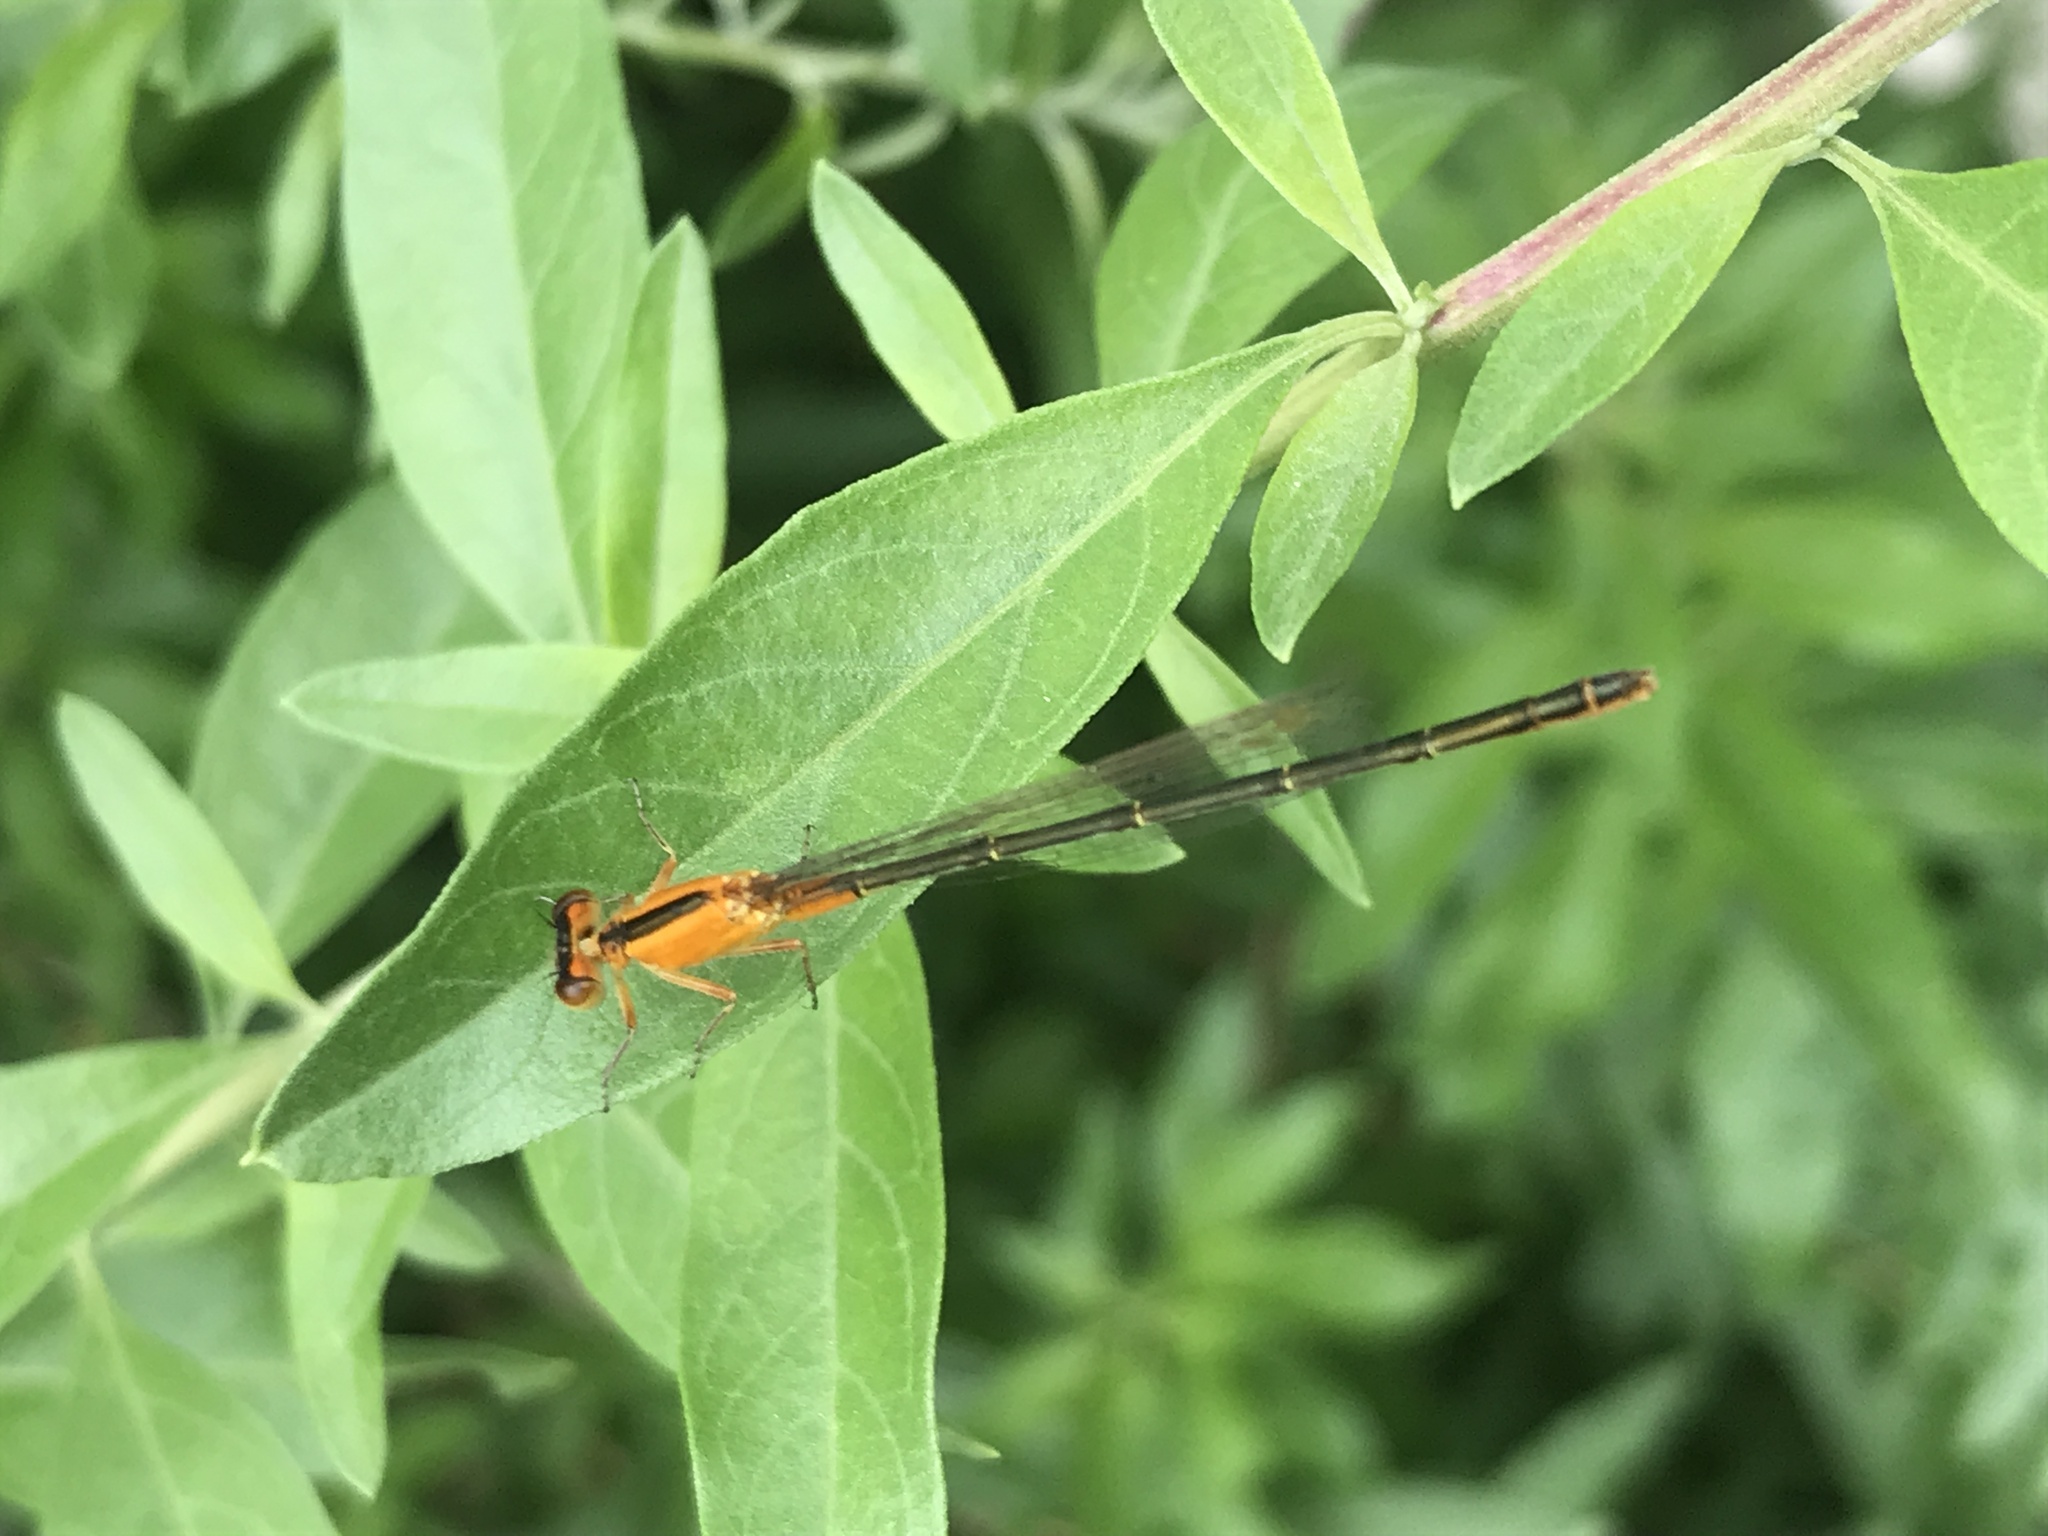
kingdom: Animalia
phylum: Arthropoda
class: Insecta
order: Odonata
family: Coenagrionidae
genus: Ischnura
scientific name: Ischnura fluviatilis
